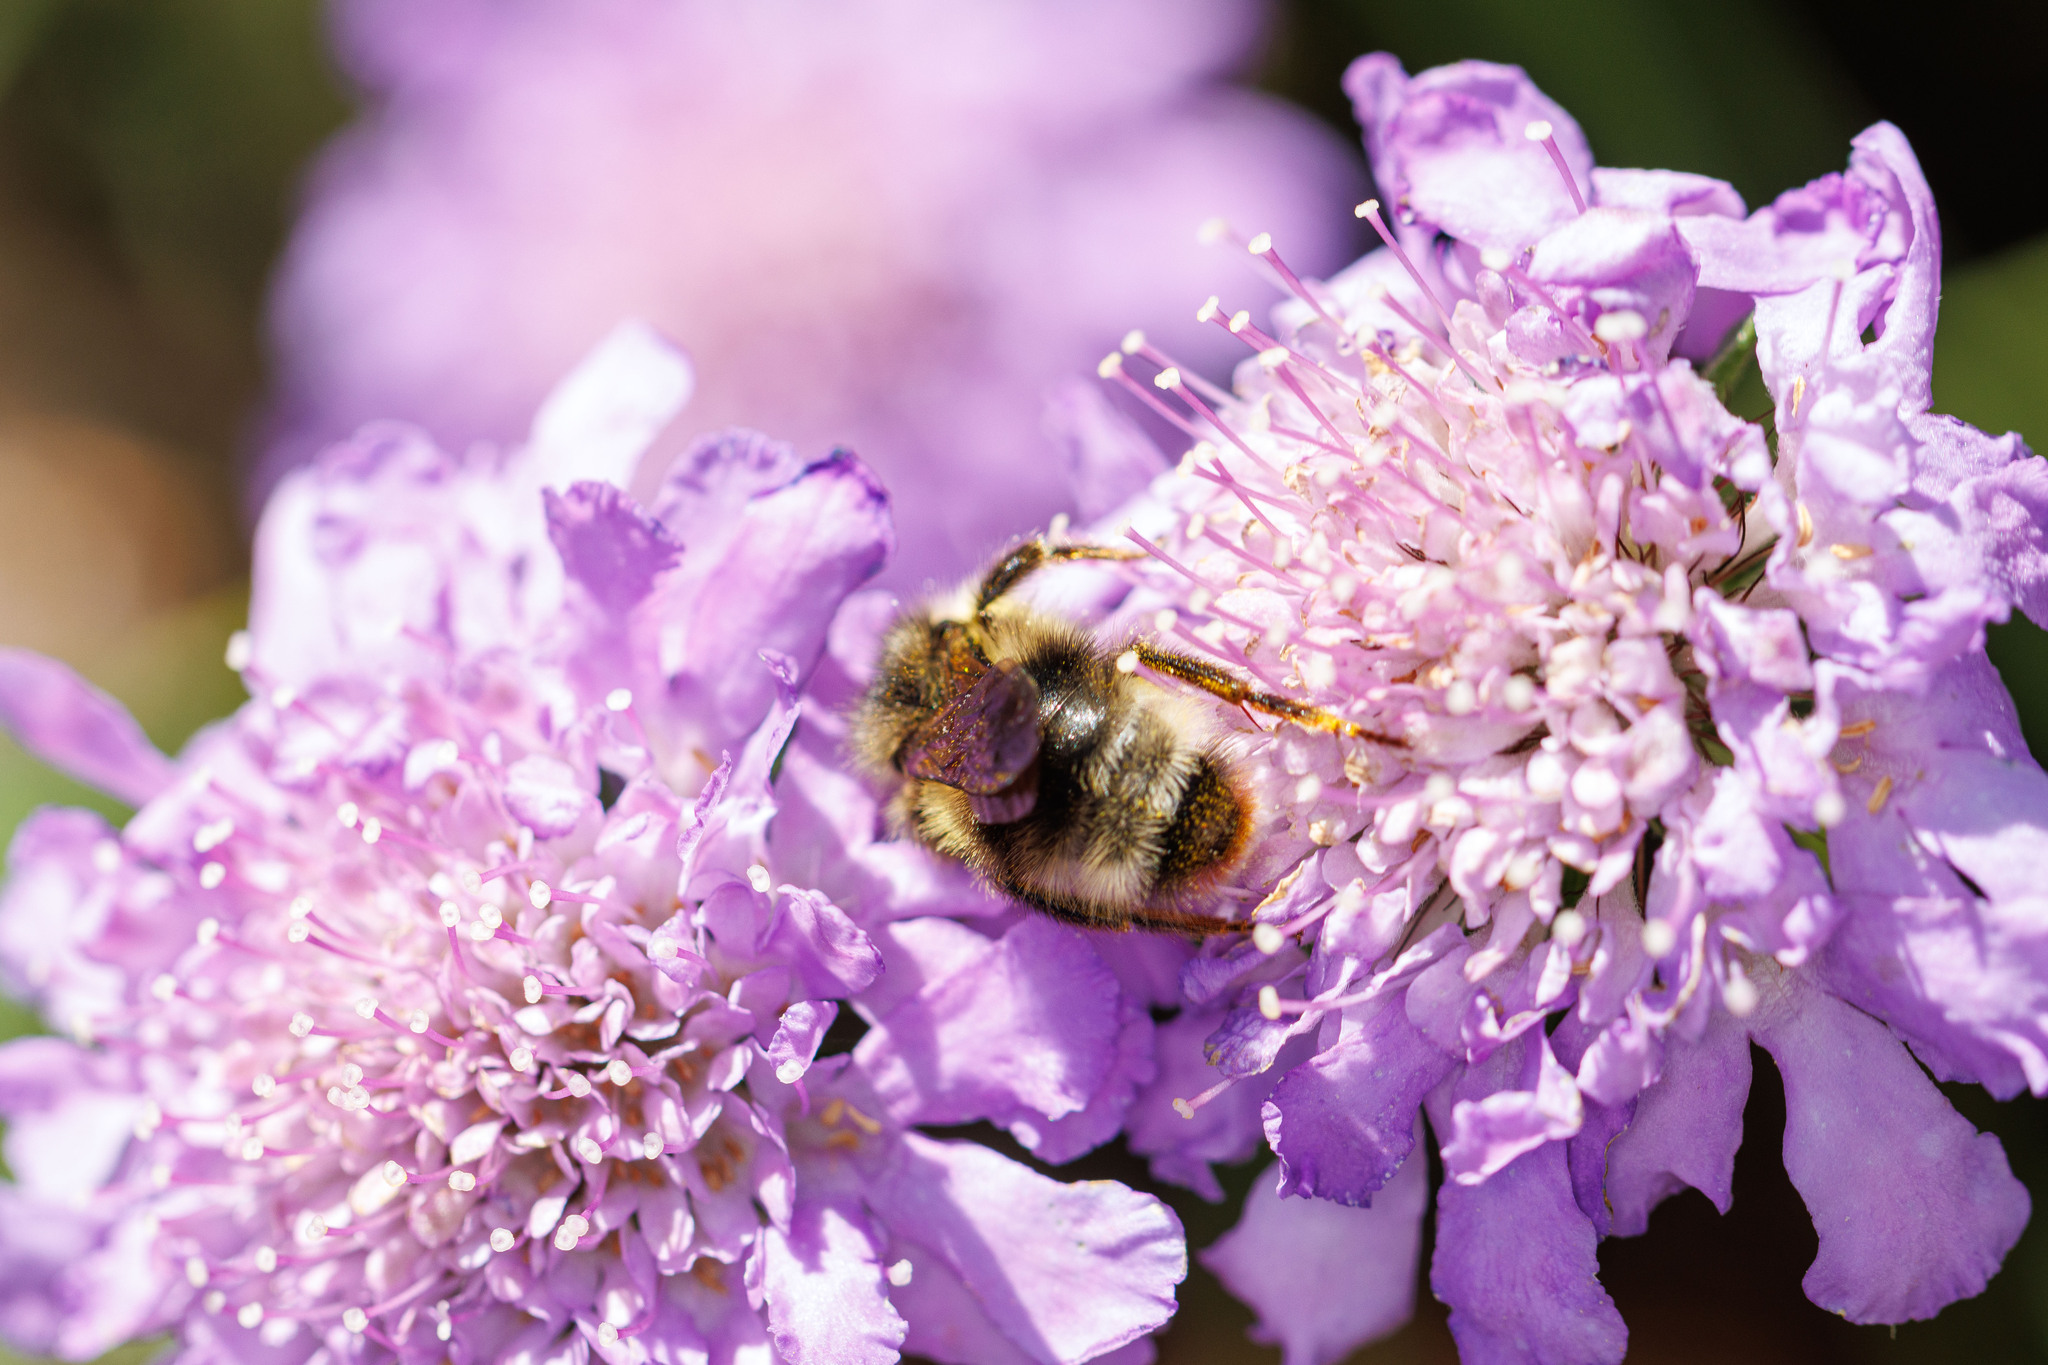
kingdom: Animalia
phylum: Arthropoda
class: Insecta
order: Hymenoptera
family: Apidae
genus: Bombus
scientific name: Bombus flavidus
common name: Fernald cuckoo bumble bee
